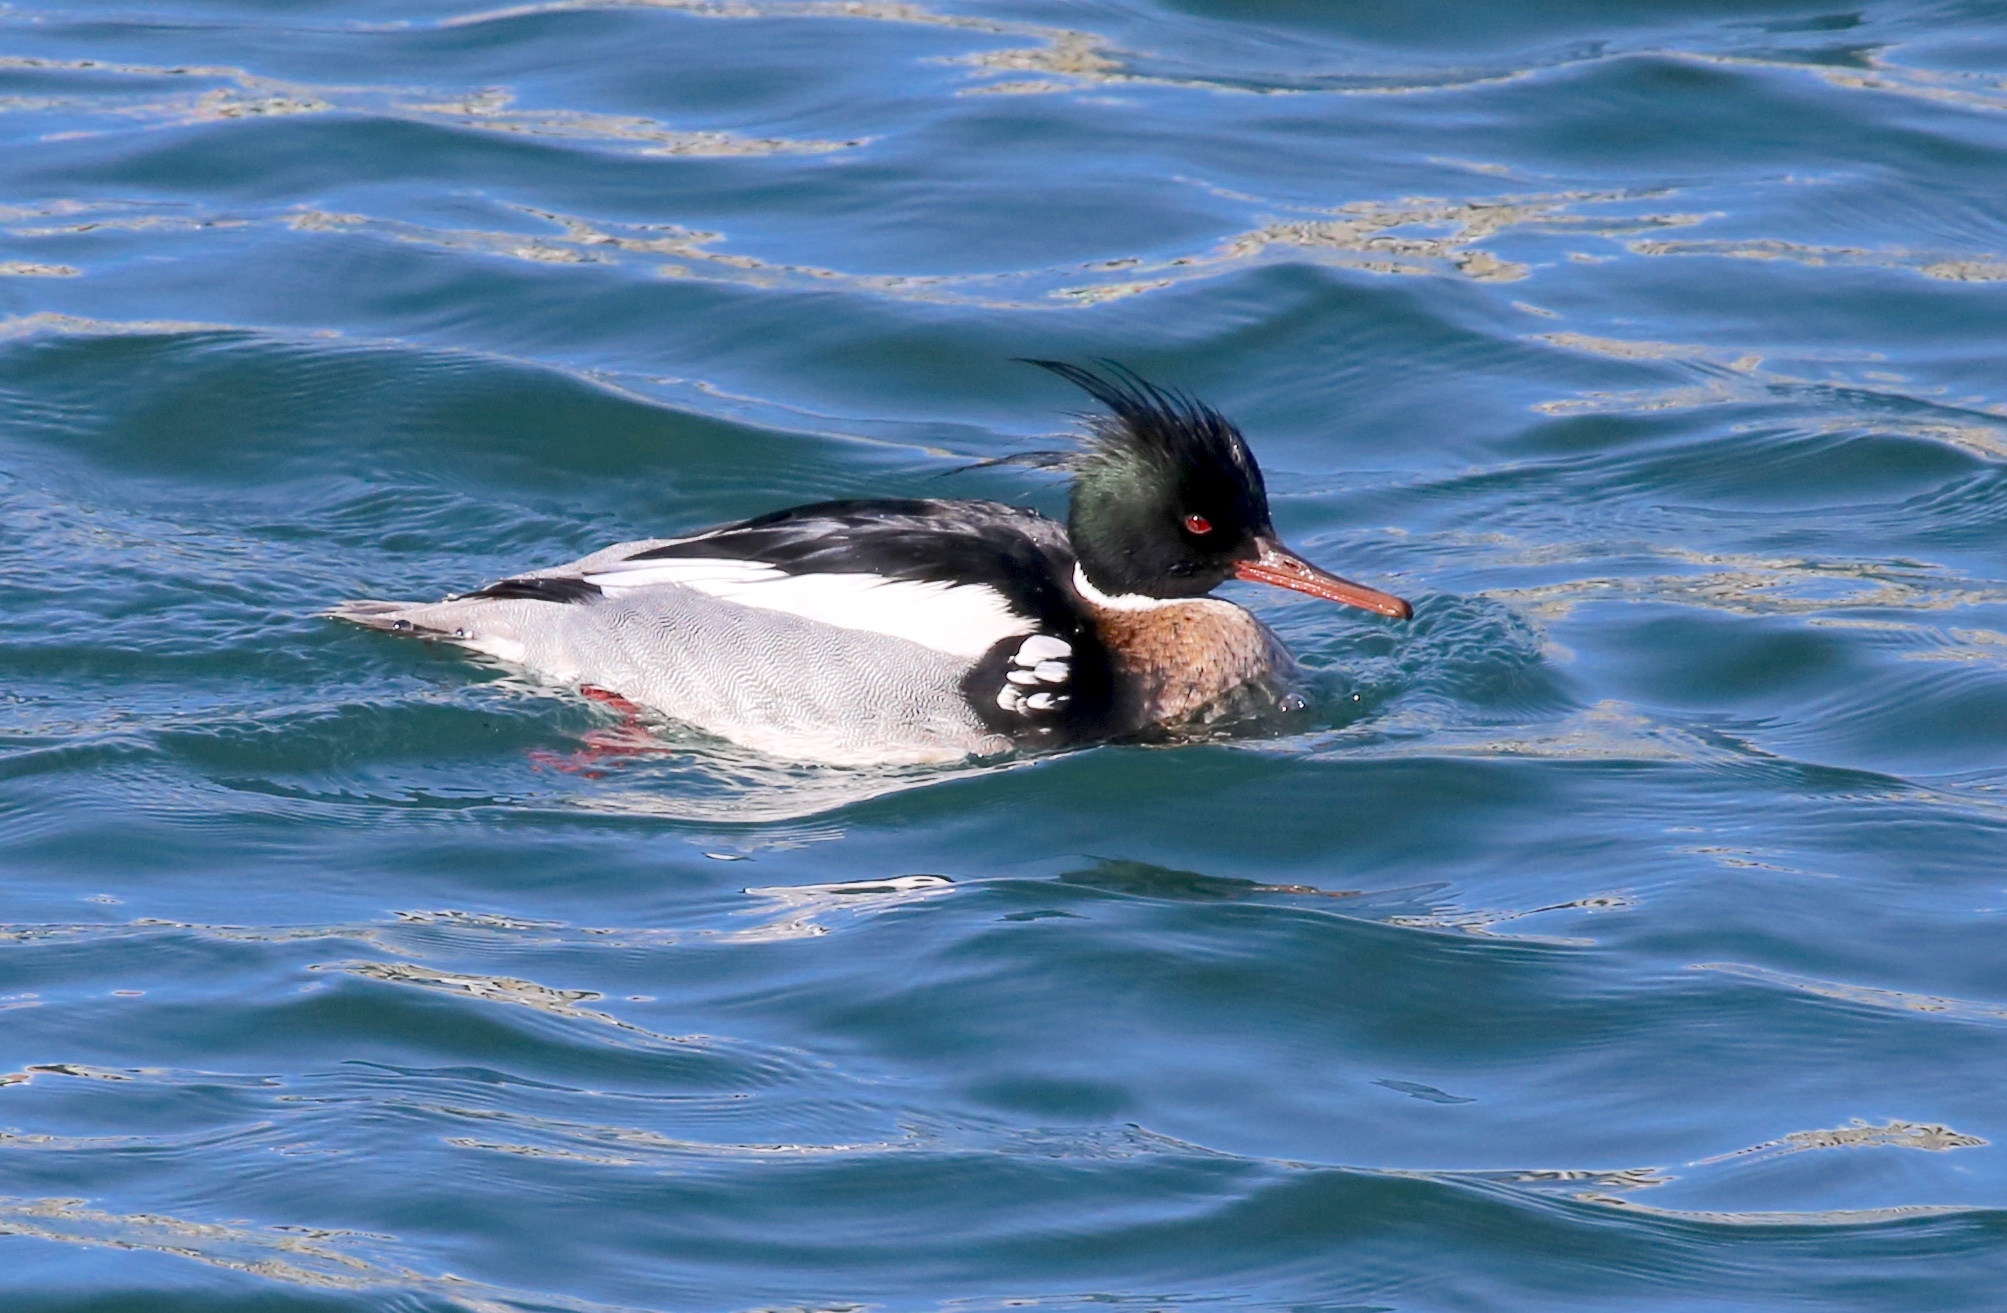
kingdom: Animalia
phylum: Chordata
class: Aves
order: Anseriformes
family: Anatidae
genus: Mergus
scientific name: Mergus serrator
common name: Red-breasted merganser
